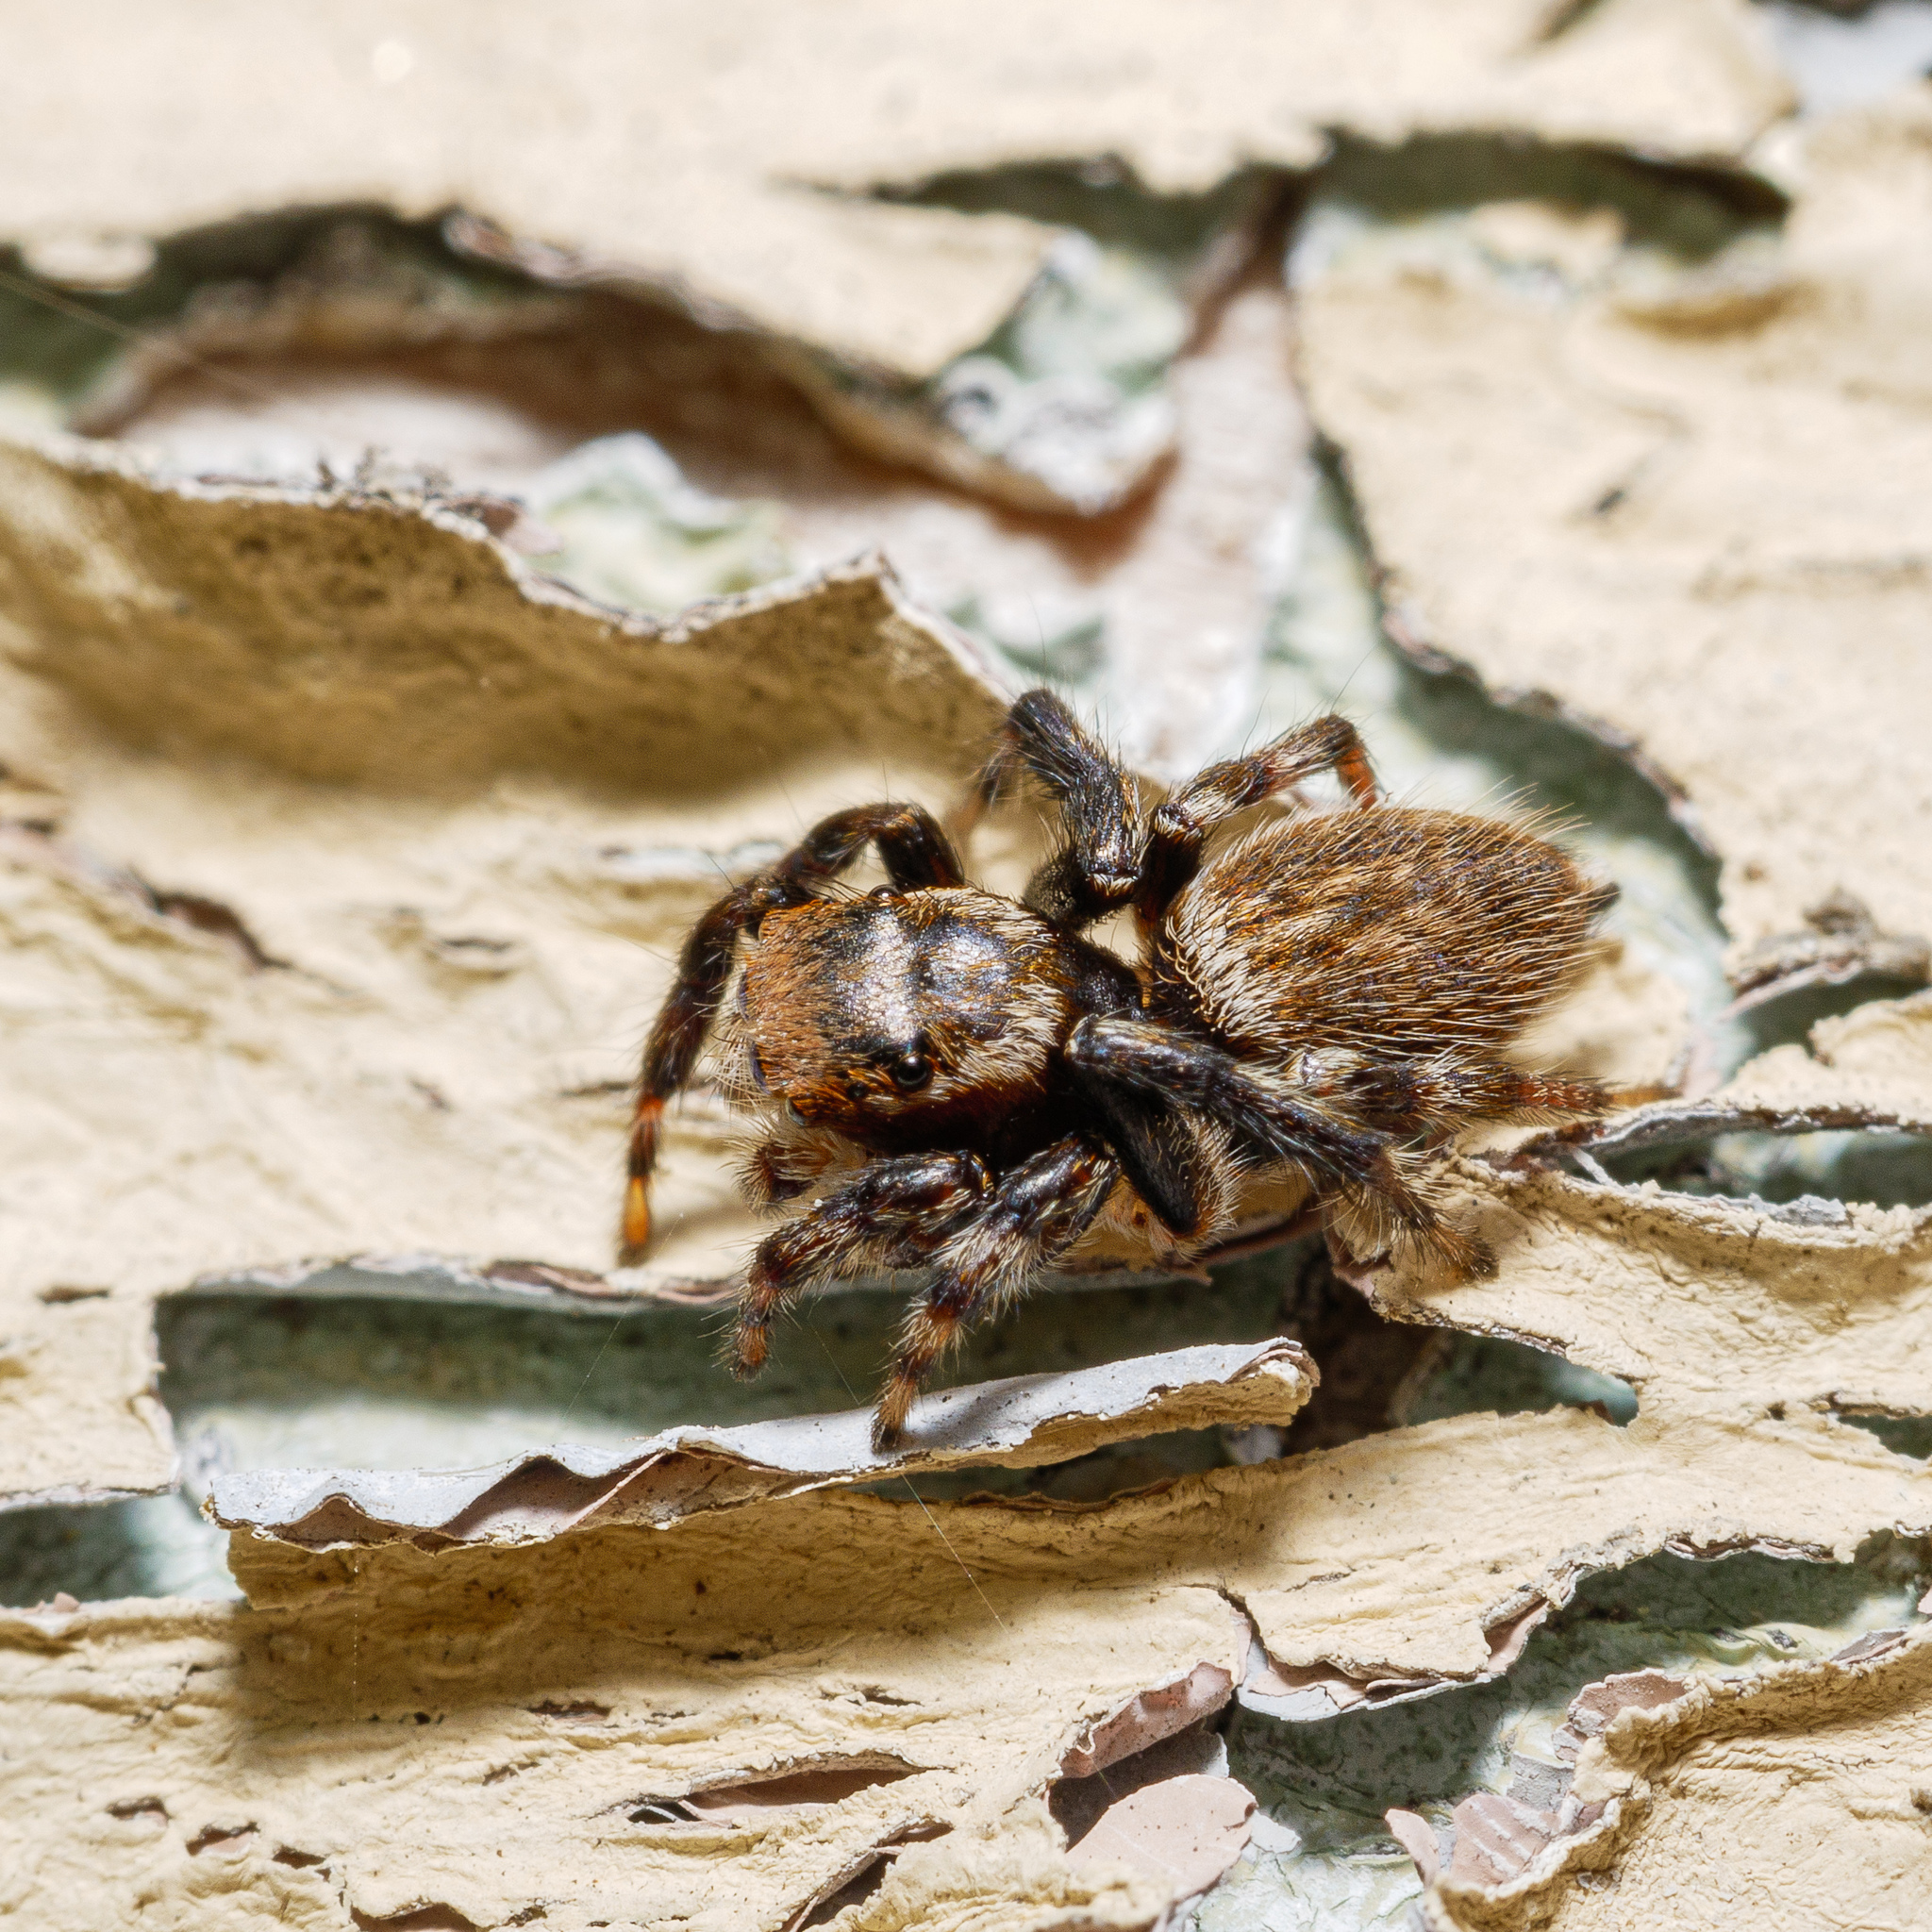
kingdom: Animalia
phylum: Arthropoda
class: Arachnida
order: Araneae
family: Salticidae
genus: Maratus
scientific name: Maratus griseus
